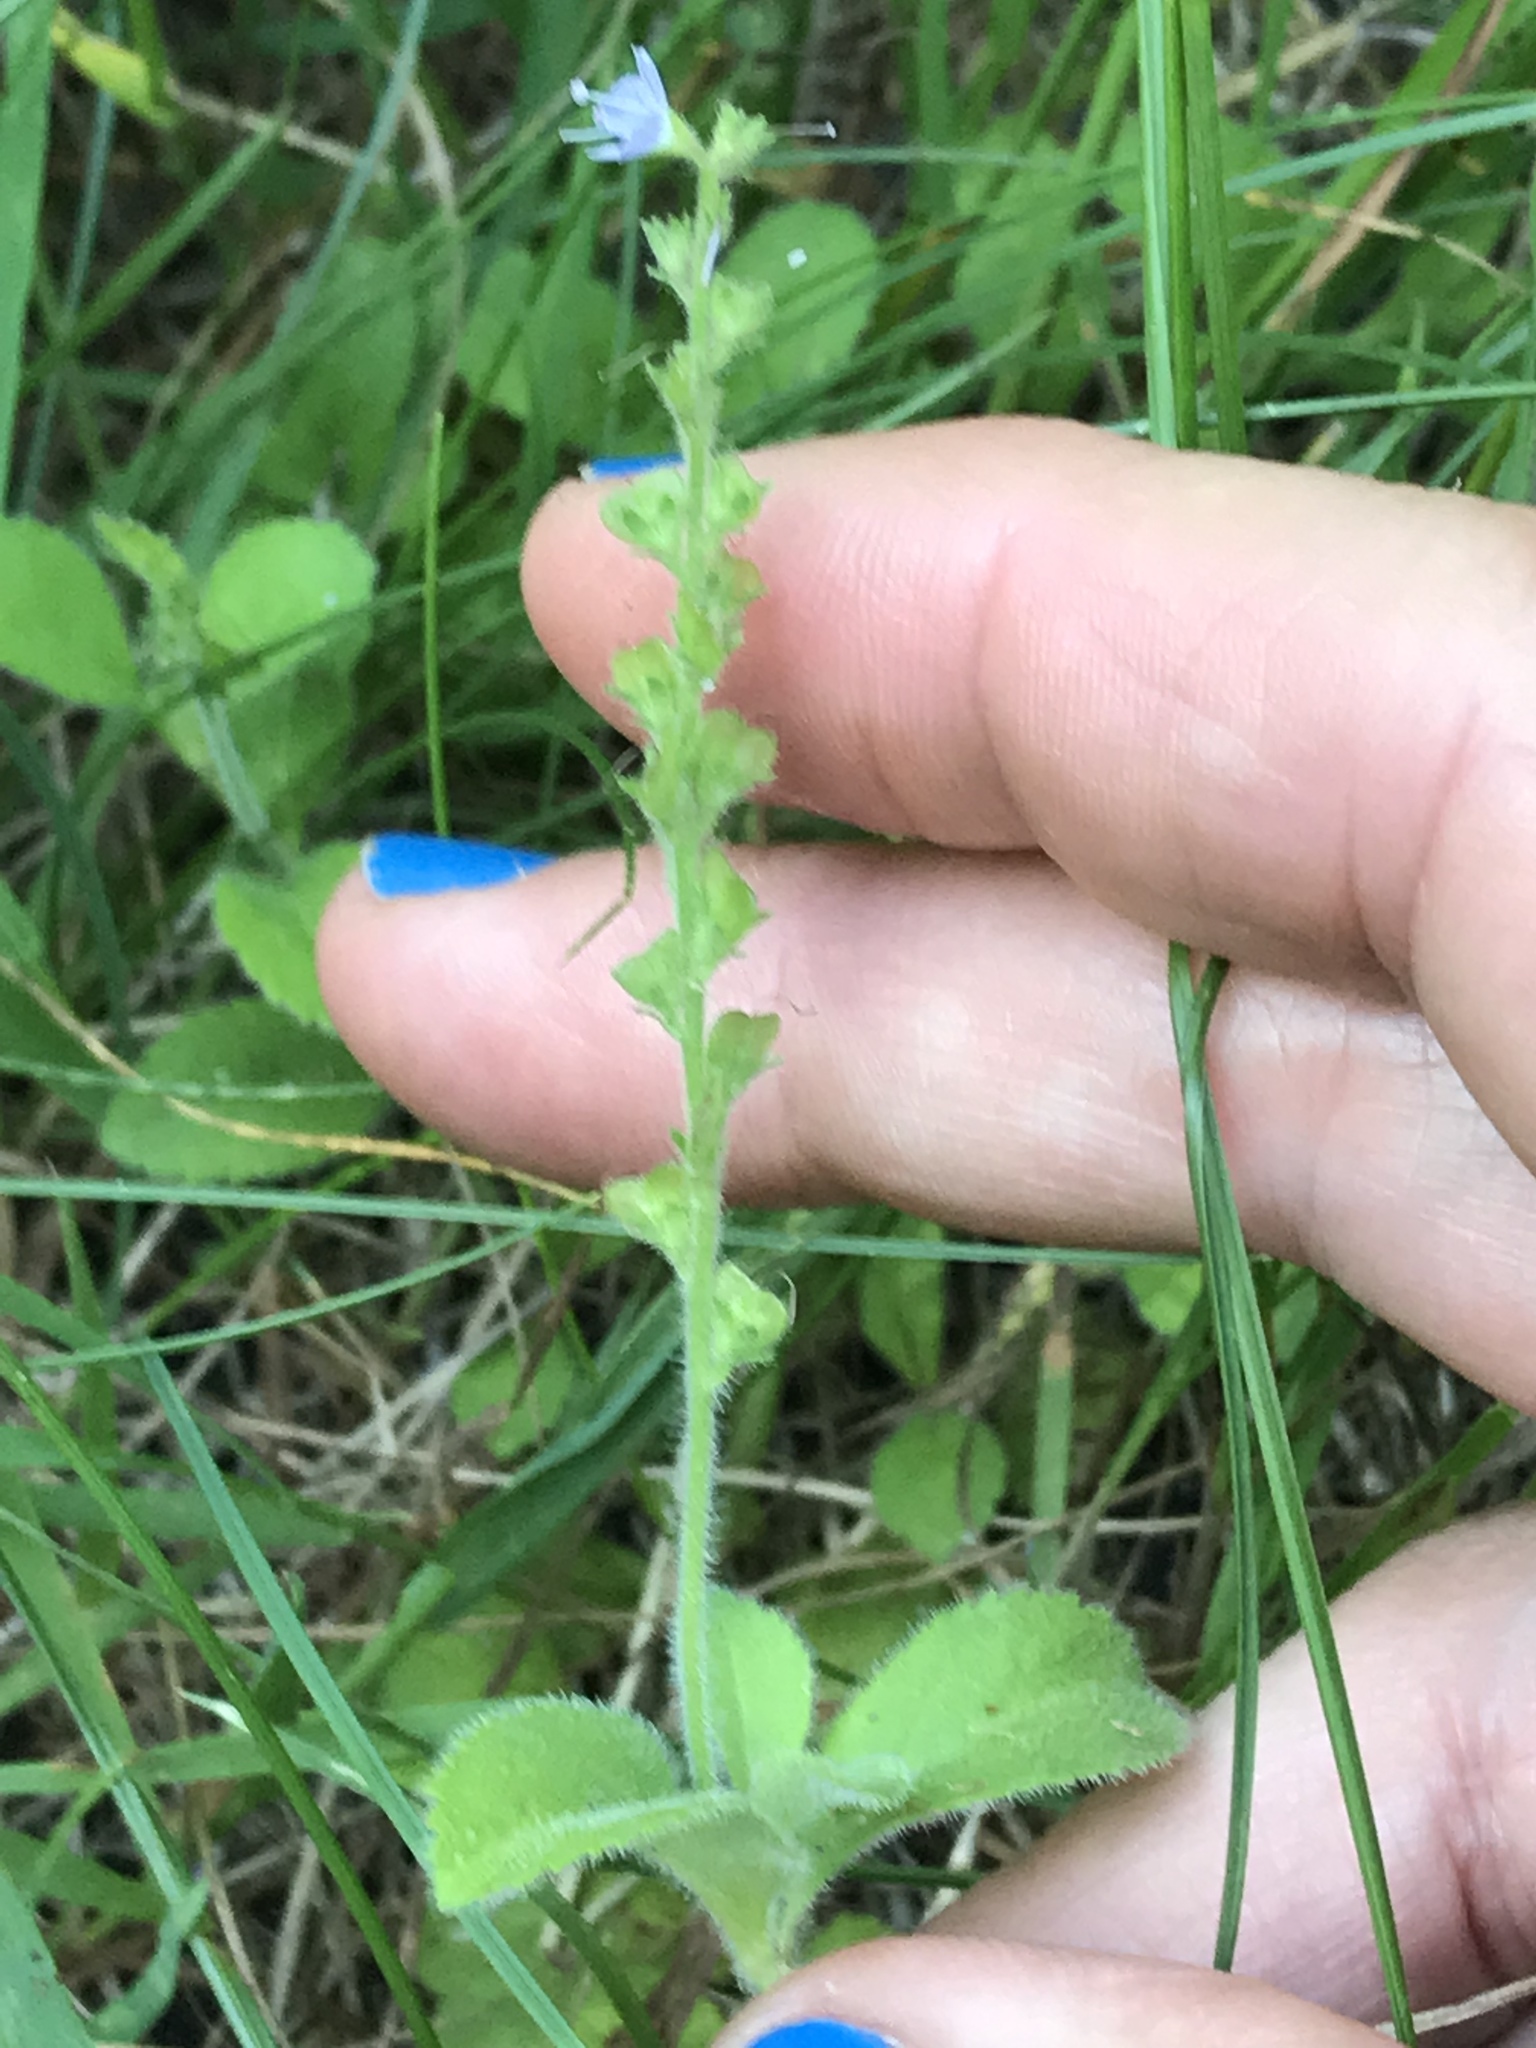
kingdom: Plantae
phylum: Tracheophyta
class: Magnoliopsida
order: Lamiales
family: Plantaginaceae
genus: Veronica
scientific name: Veronica officinalis
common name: Common speedwell
